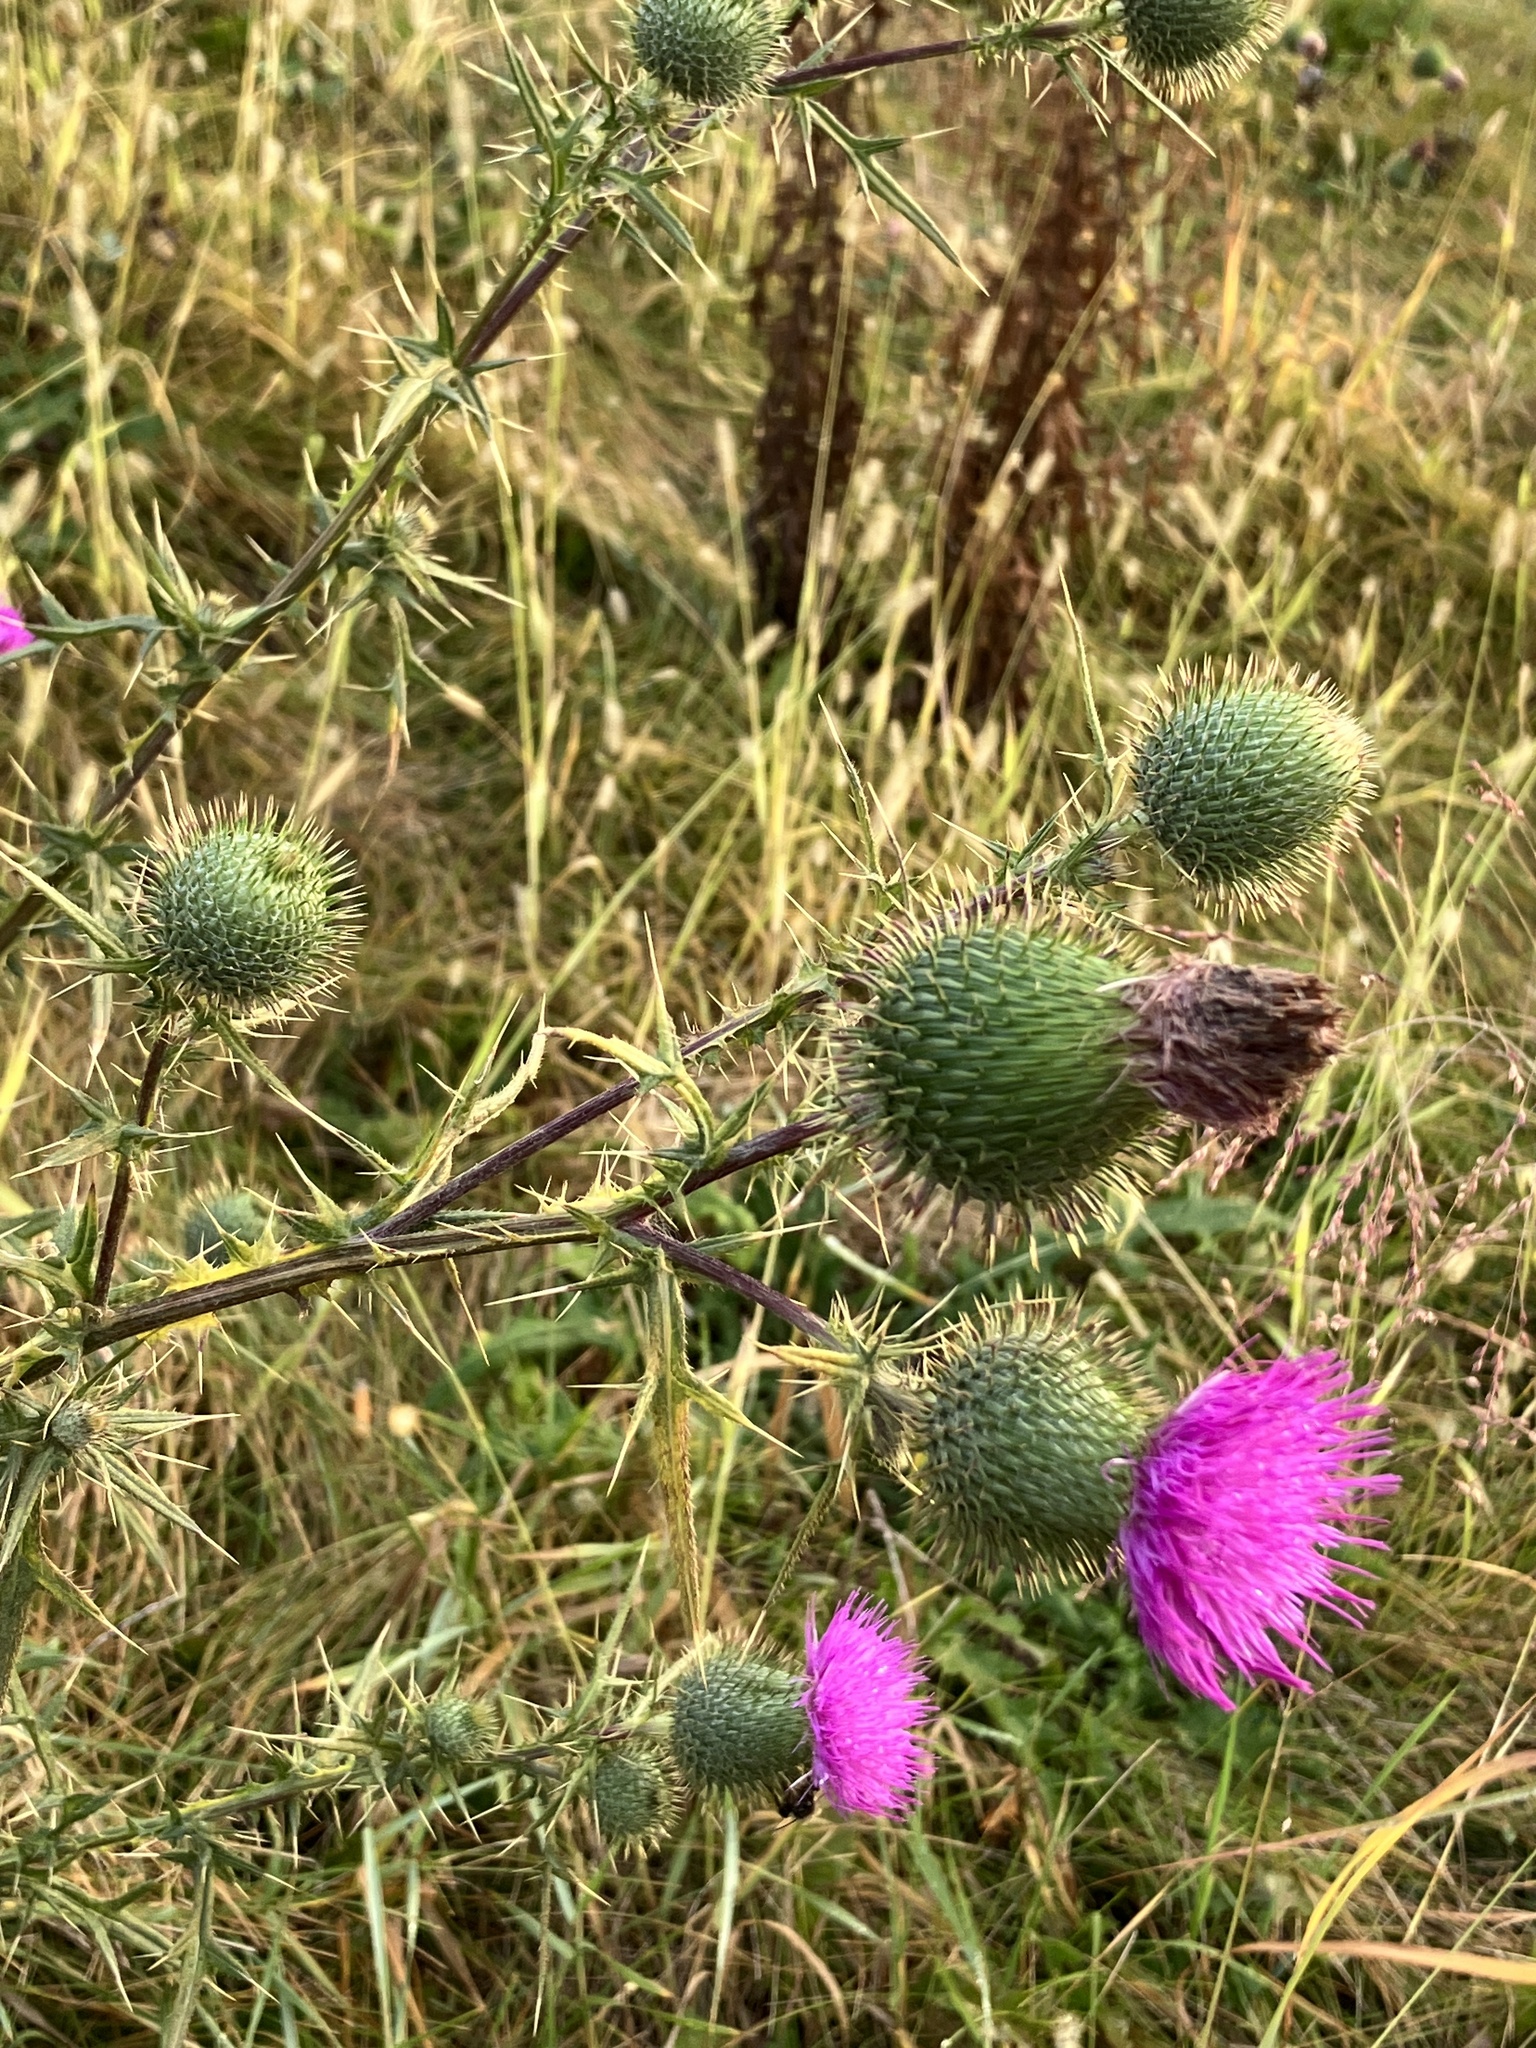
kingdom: Plantae
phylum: Tracheophyta
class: Magnoliopsida
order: Asterales
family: Asteraceae
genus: Cirsium
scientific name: Cirsium vulgare
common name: Bull thistle
